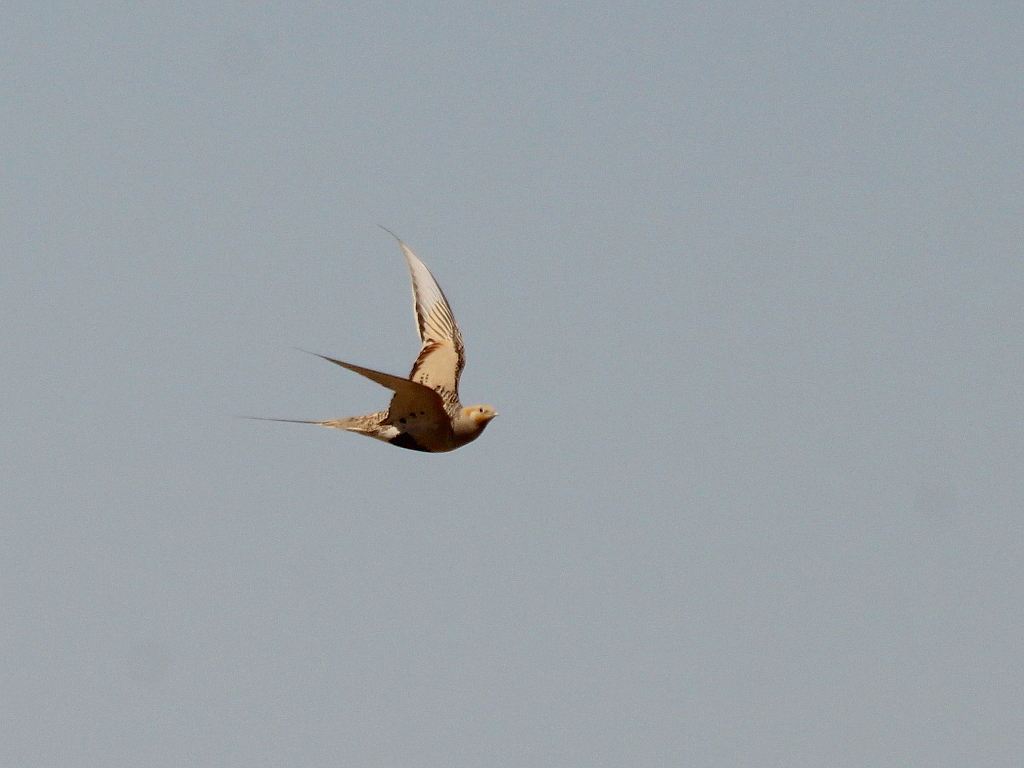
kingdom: Animalia
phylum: Chordata
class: Aves
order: Pteroclidiformes
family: Pteroclididae
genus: Syrrhaptes
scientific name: Syrrhaptes paradoxus
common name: Pallas's sandgrouse
